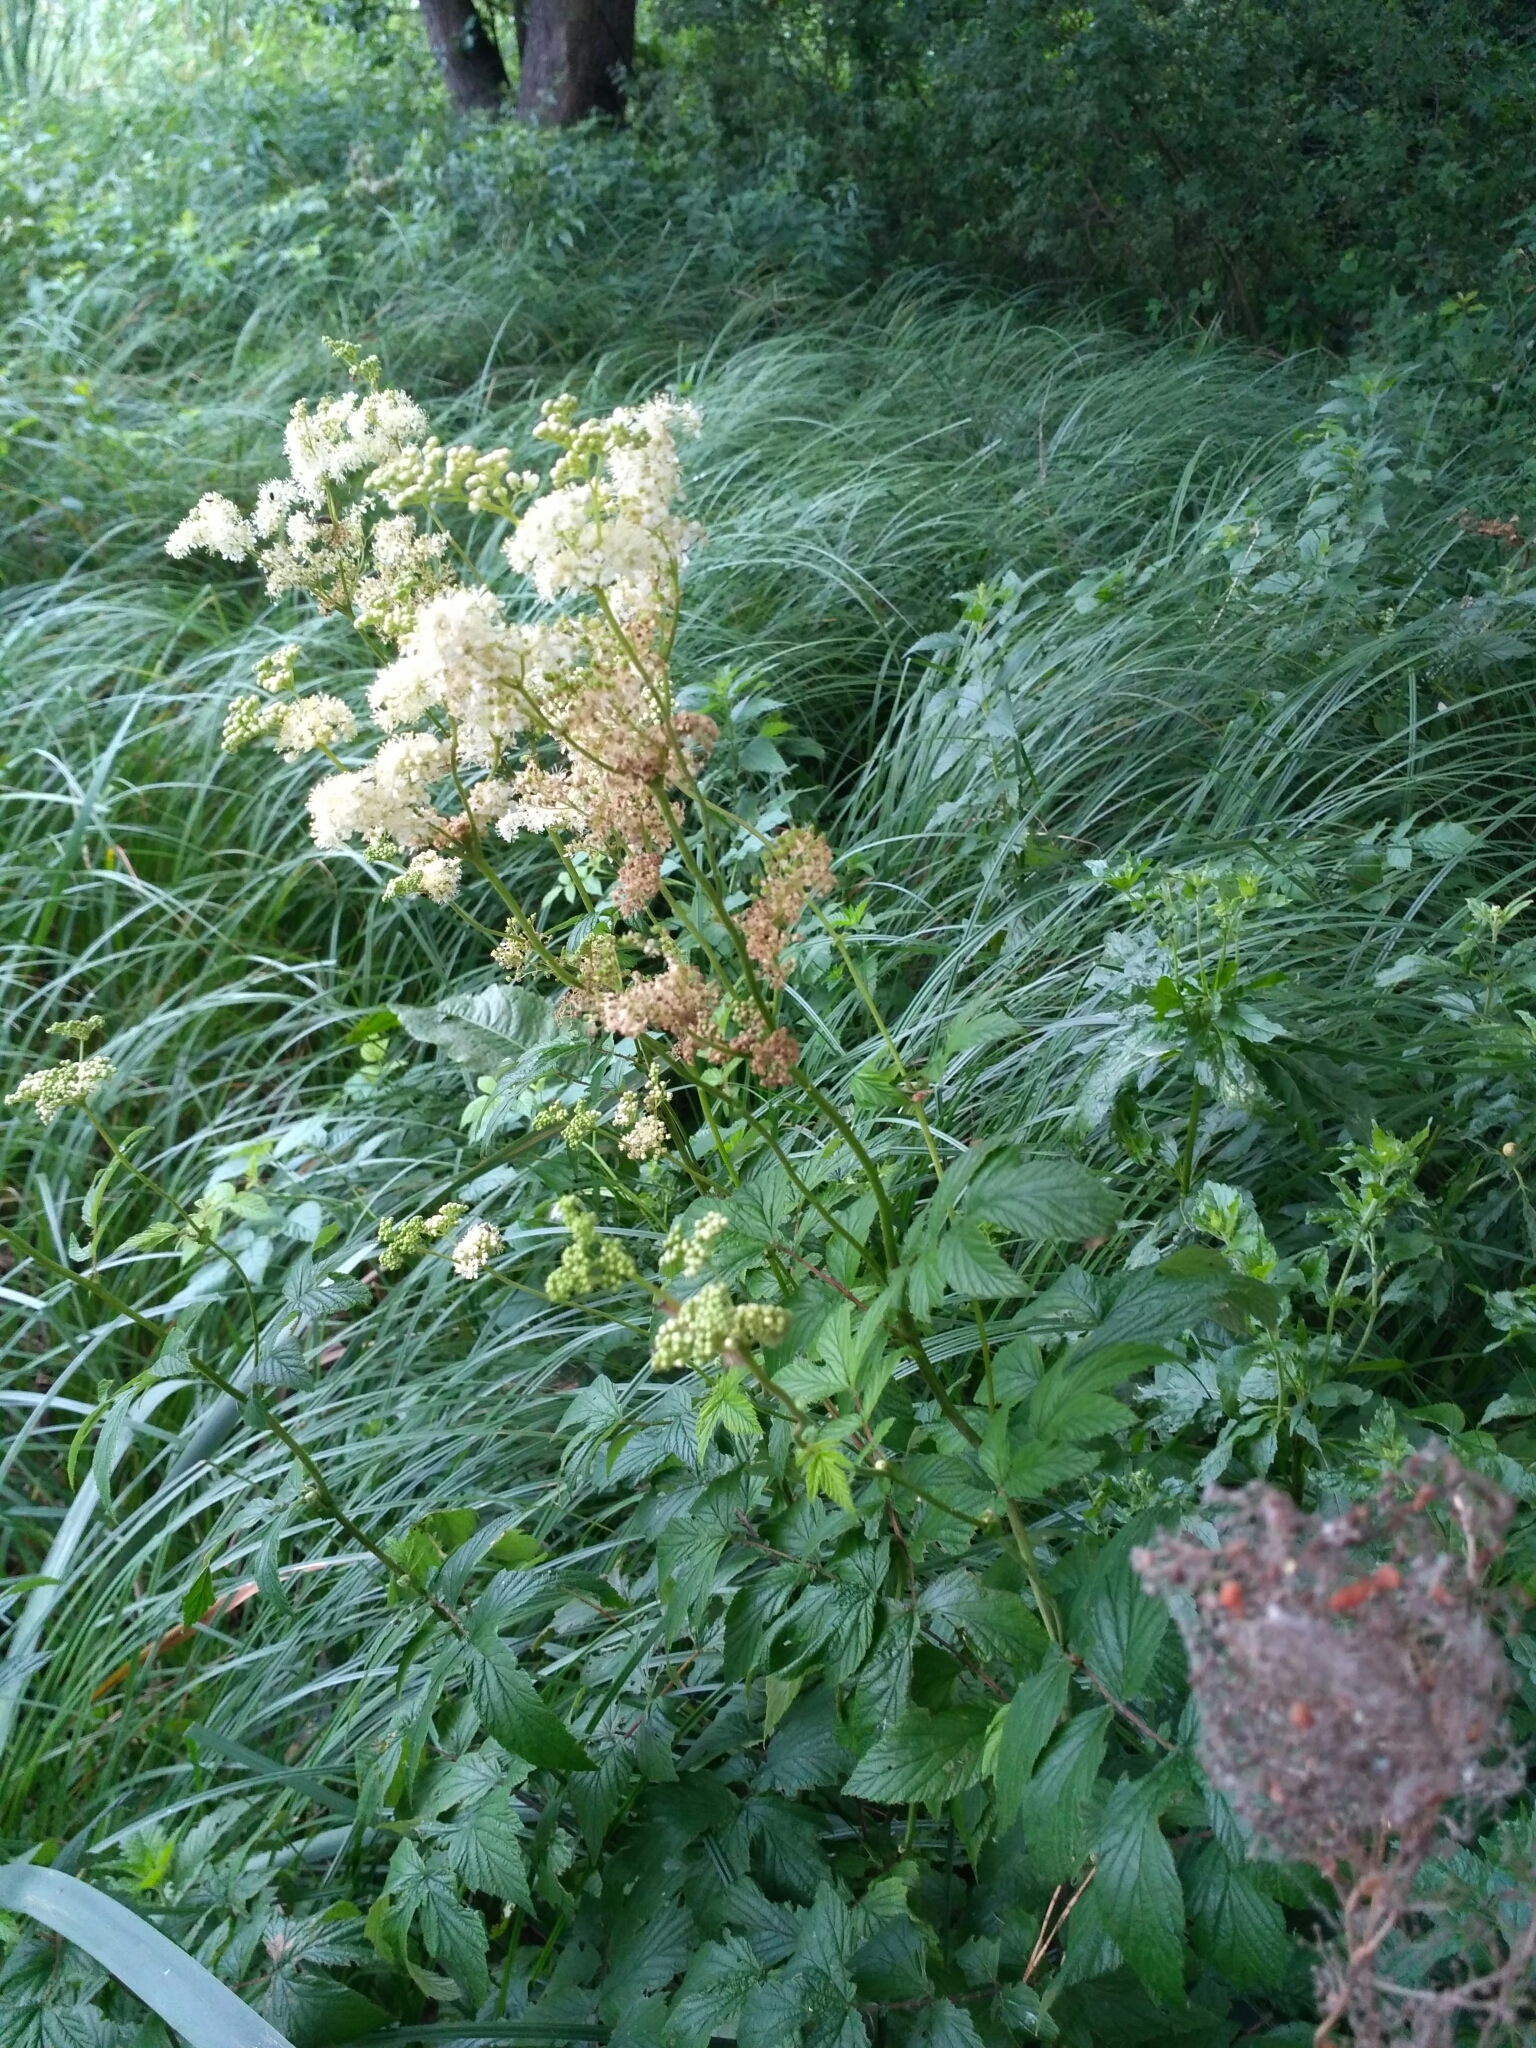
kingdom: Plantae
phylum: Tracheophyta
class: Magnoliopsida
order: Rosales
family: Rosaceae
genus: Filipendula
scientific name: Filipendula ulmaria
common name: Meadowsweet
